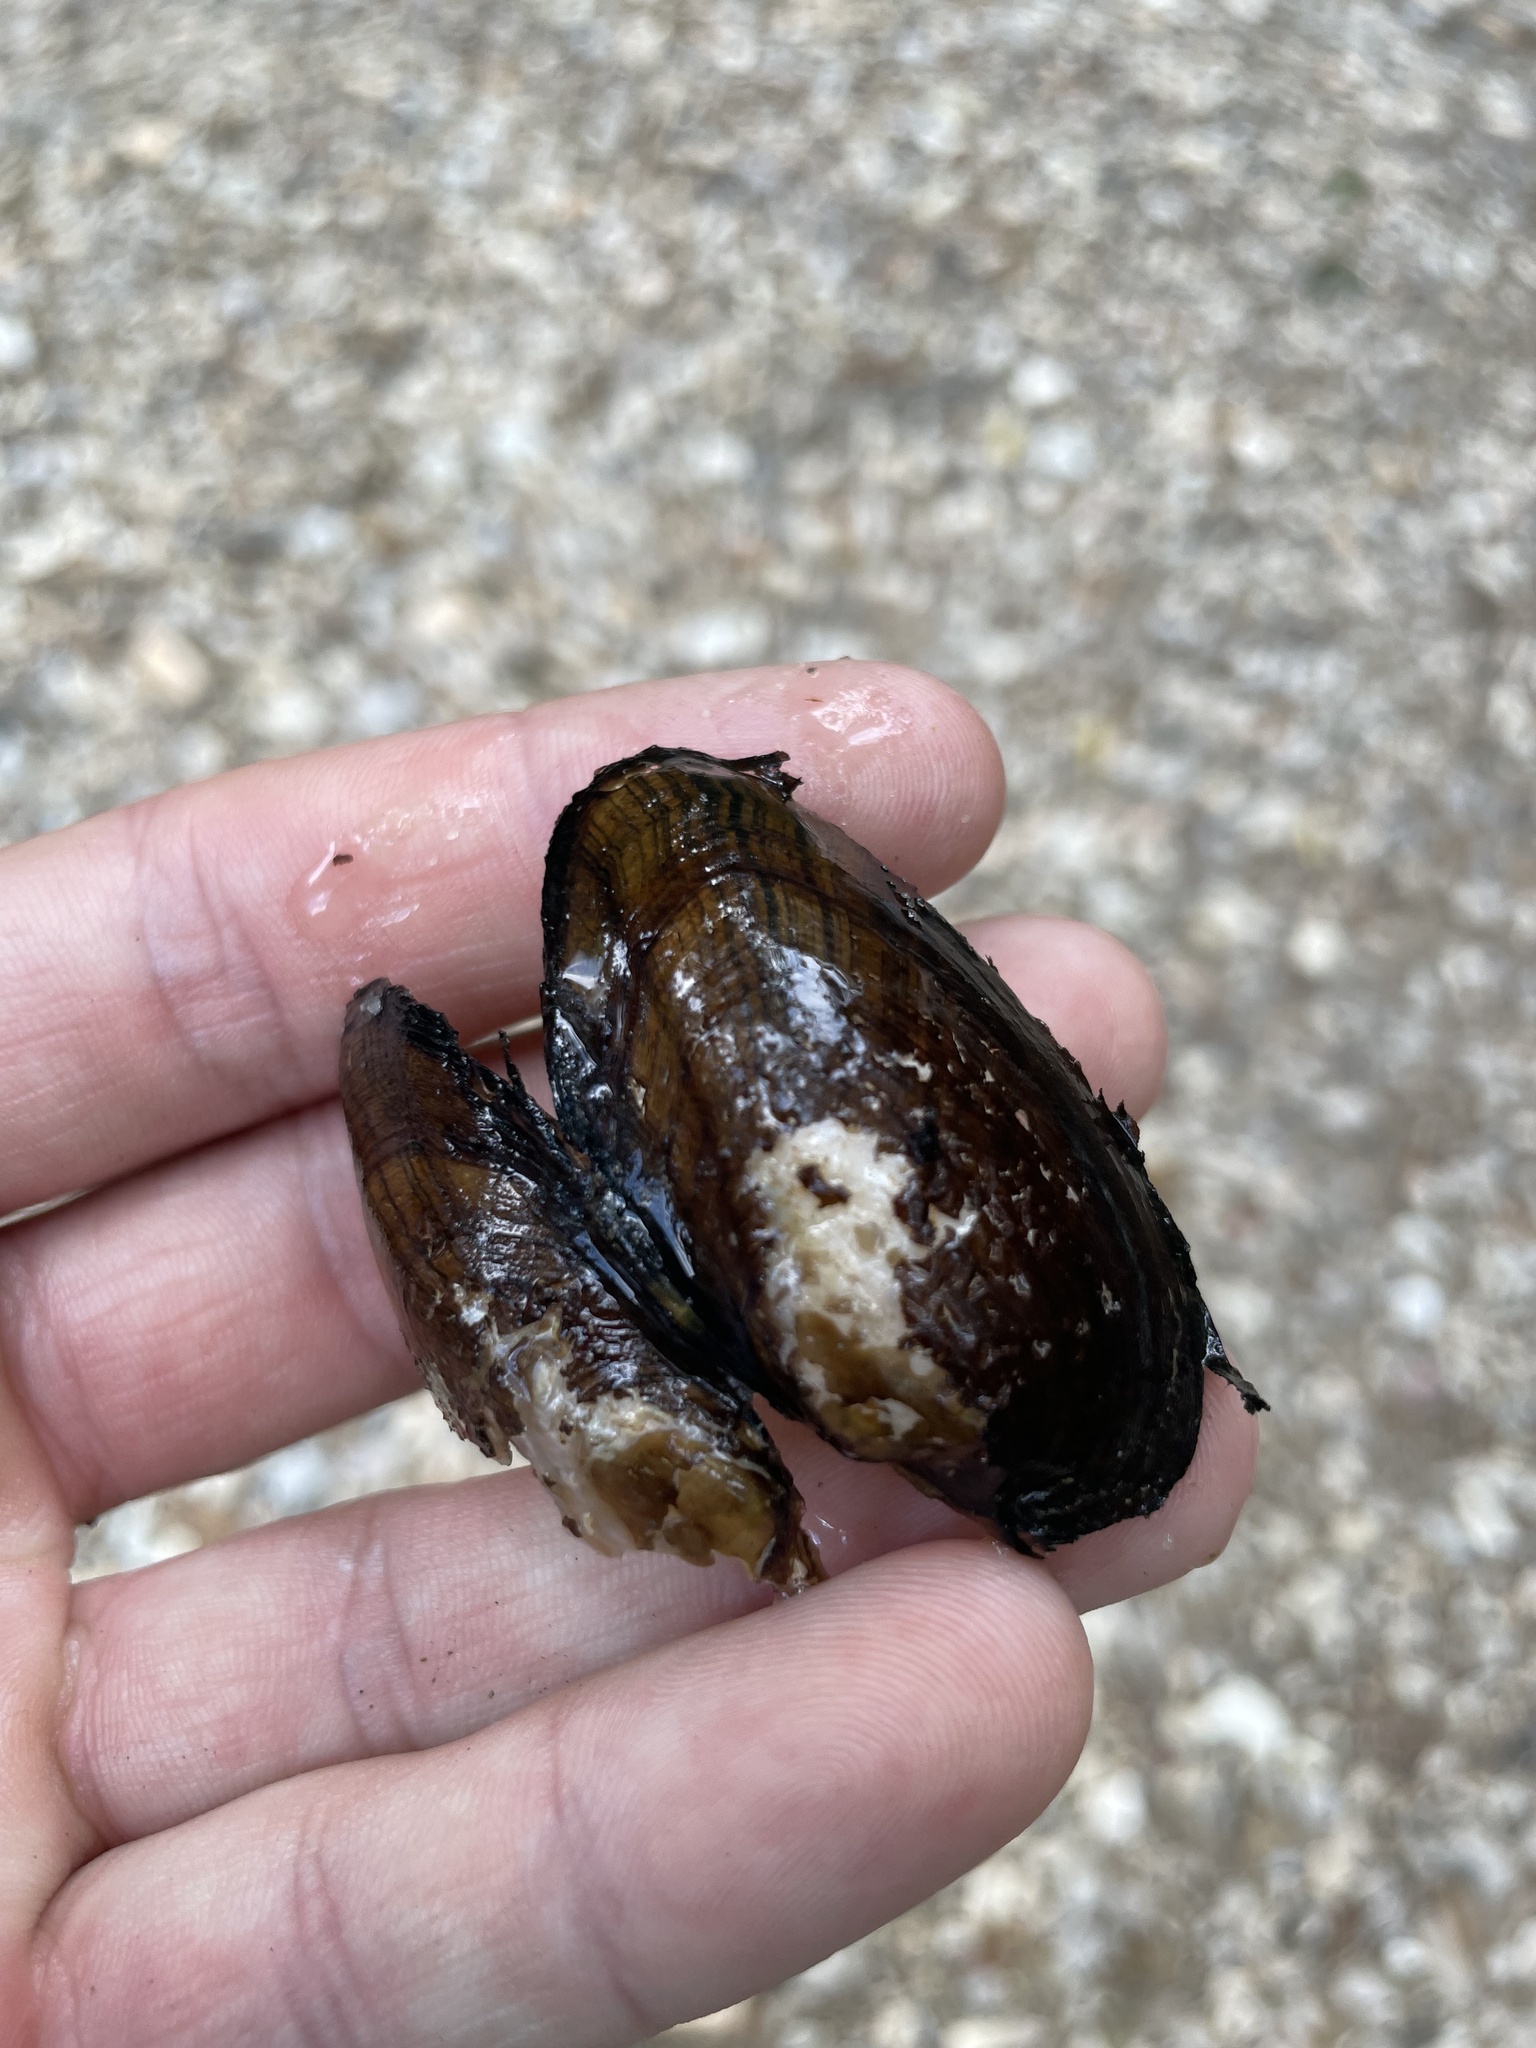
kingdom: Animalia
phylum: Mollusca
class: Bivalvia
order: Unionida
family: Unionidae
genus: Strophitus
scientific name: Strophitus pascagoulaensis
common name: Pascagoula creekshell
